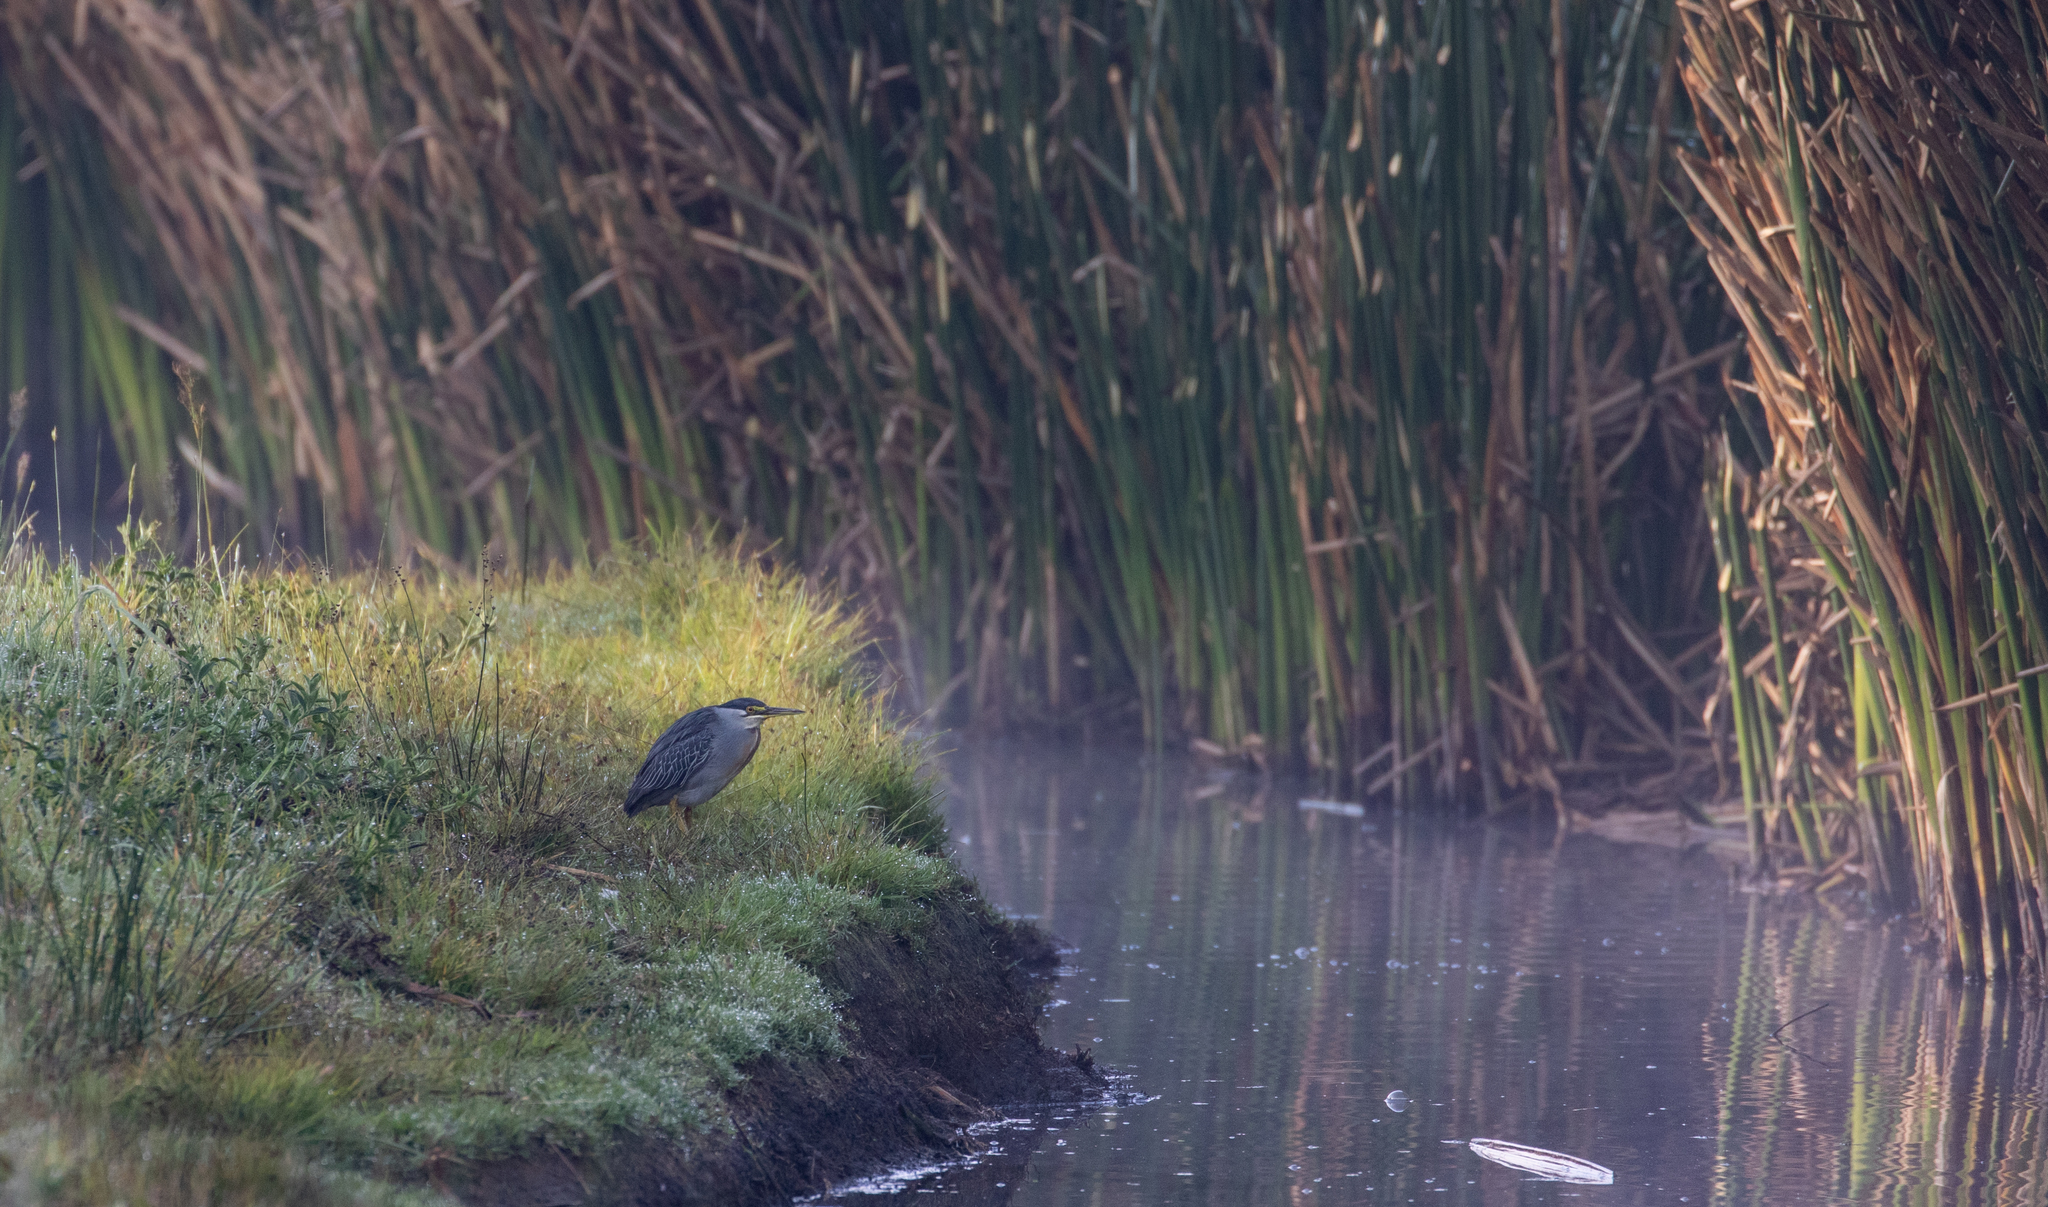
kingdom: Animalia
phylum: Chordata
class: Aves
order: Pelecaniformes
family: Ardeidae
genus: Butorides
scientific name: Butorides striata
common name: Striated heron
